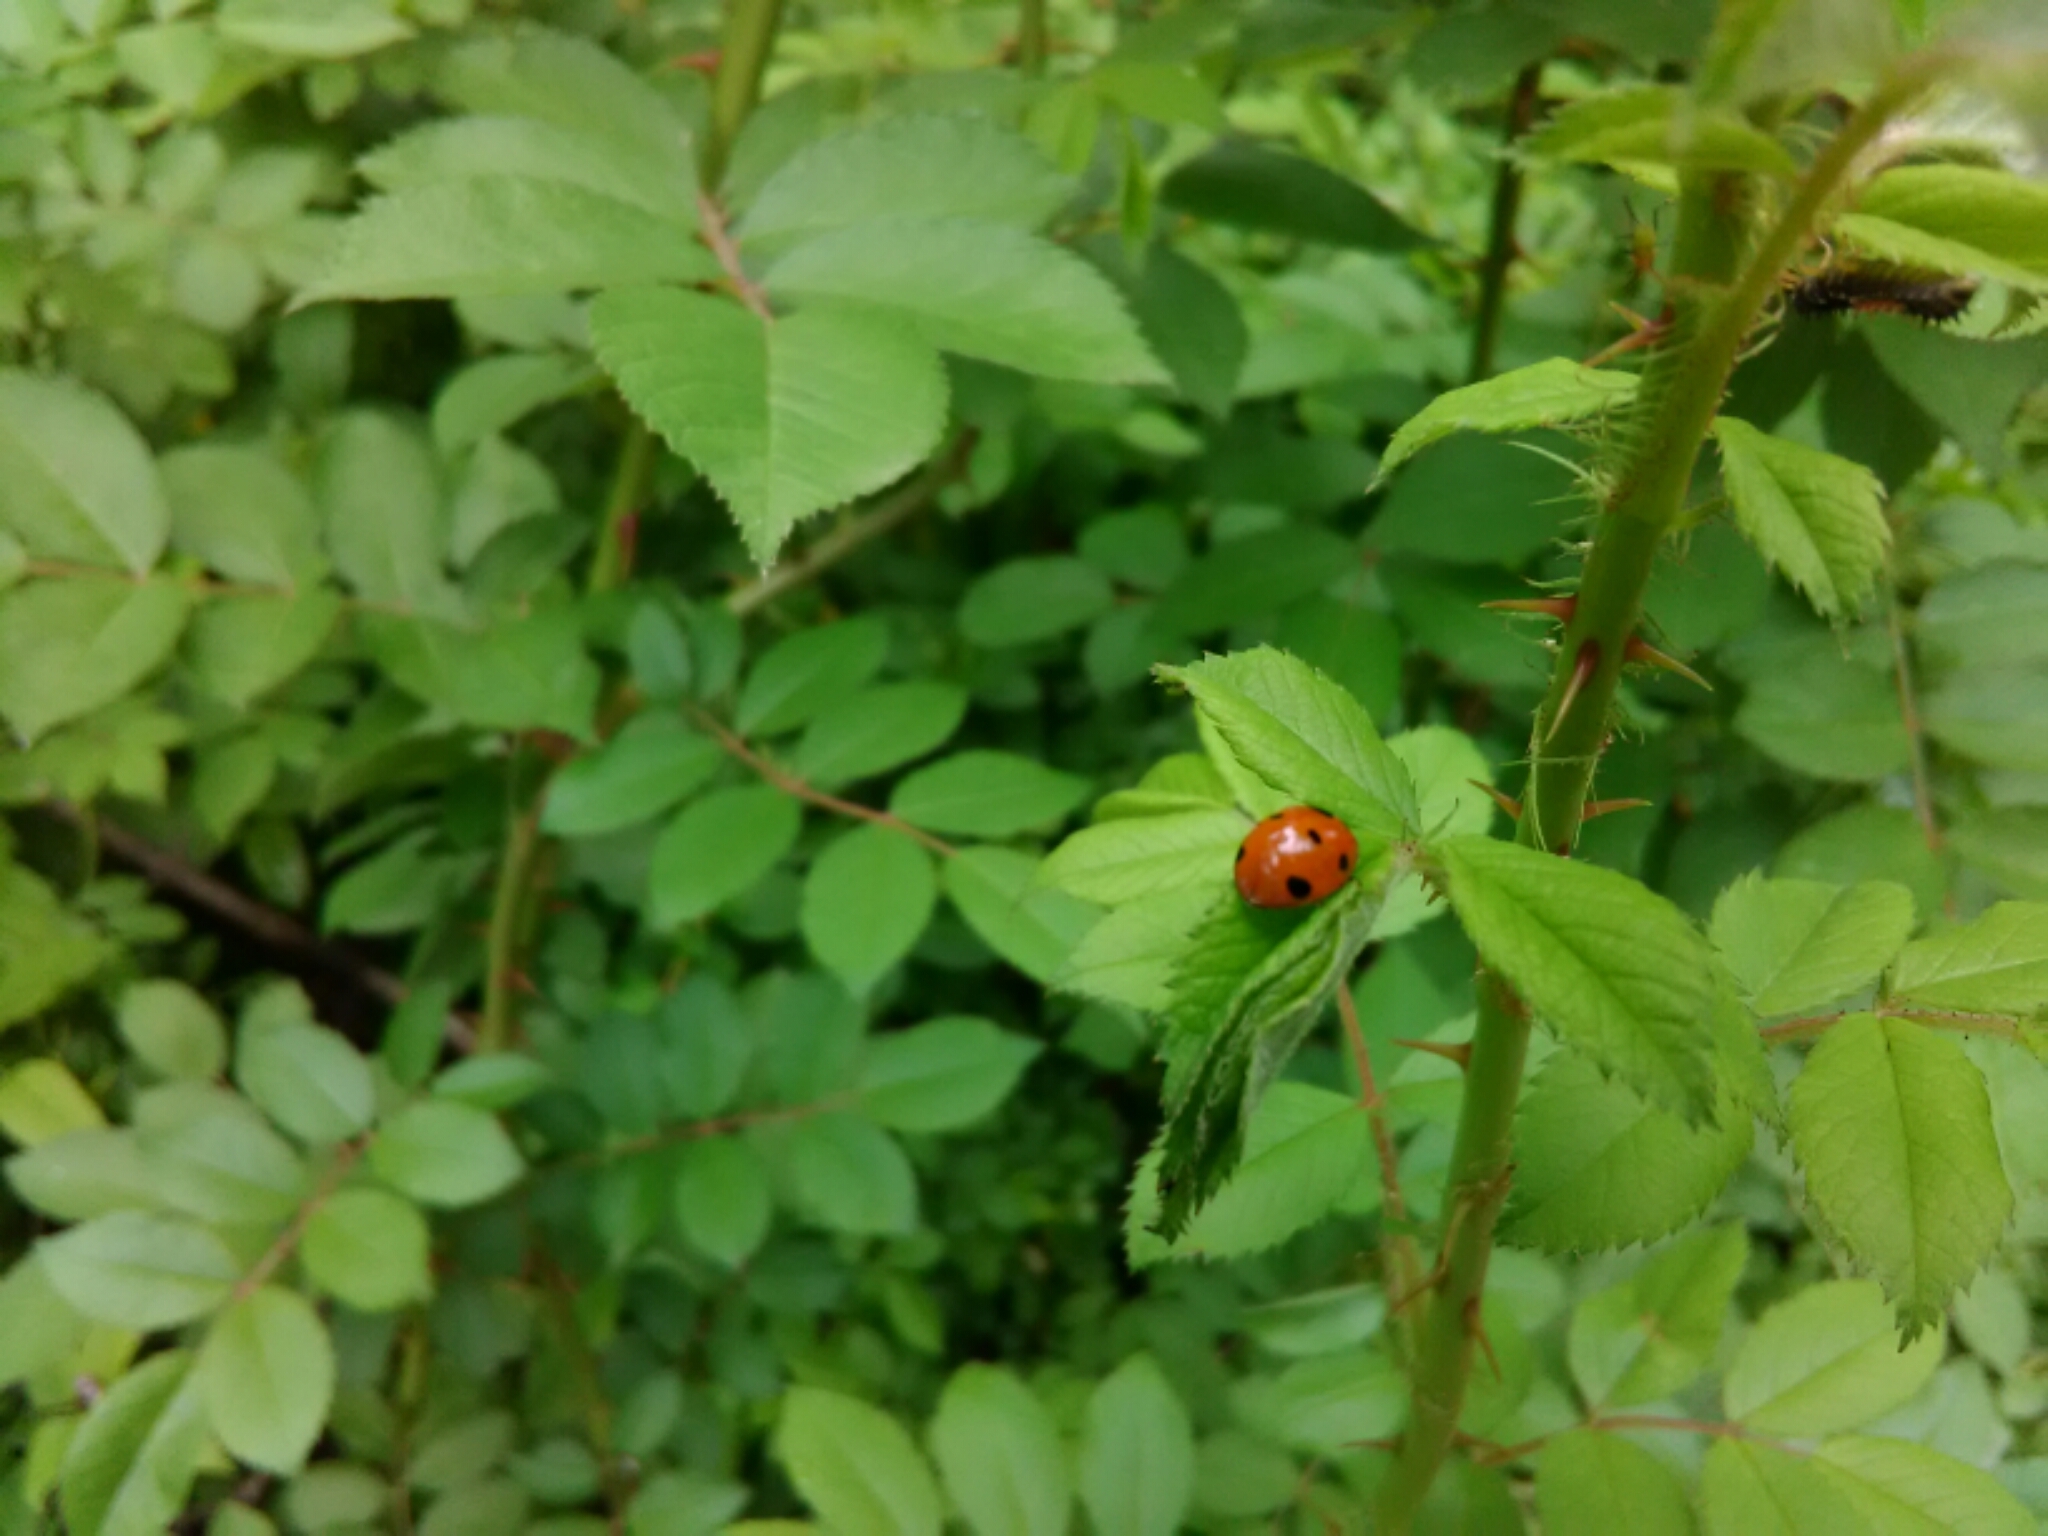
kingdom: Animalia
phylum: Arthropoda
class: Insecta
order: Coleoptera
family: Coccinellidae
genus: Coccinella
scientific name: Coccinella septempunctata
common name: Sevenspotted lady beetle
